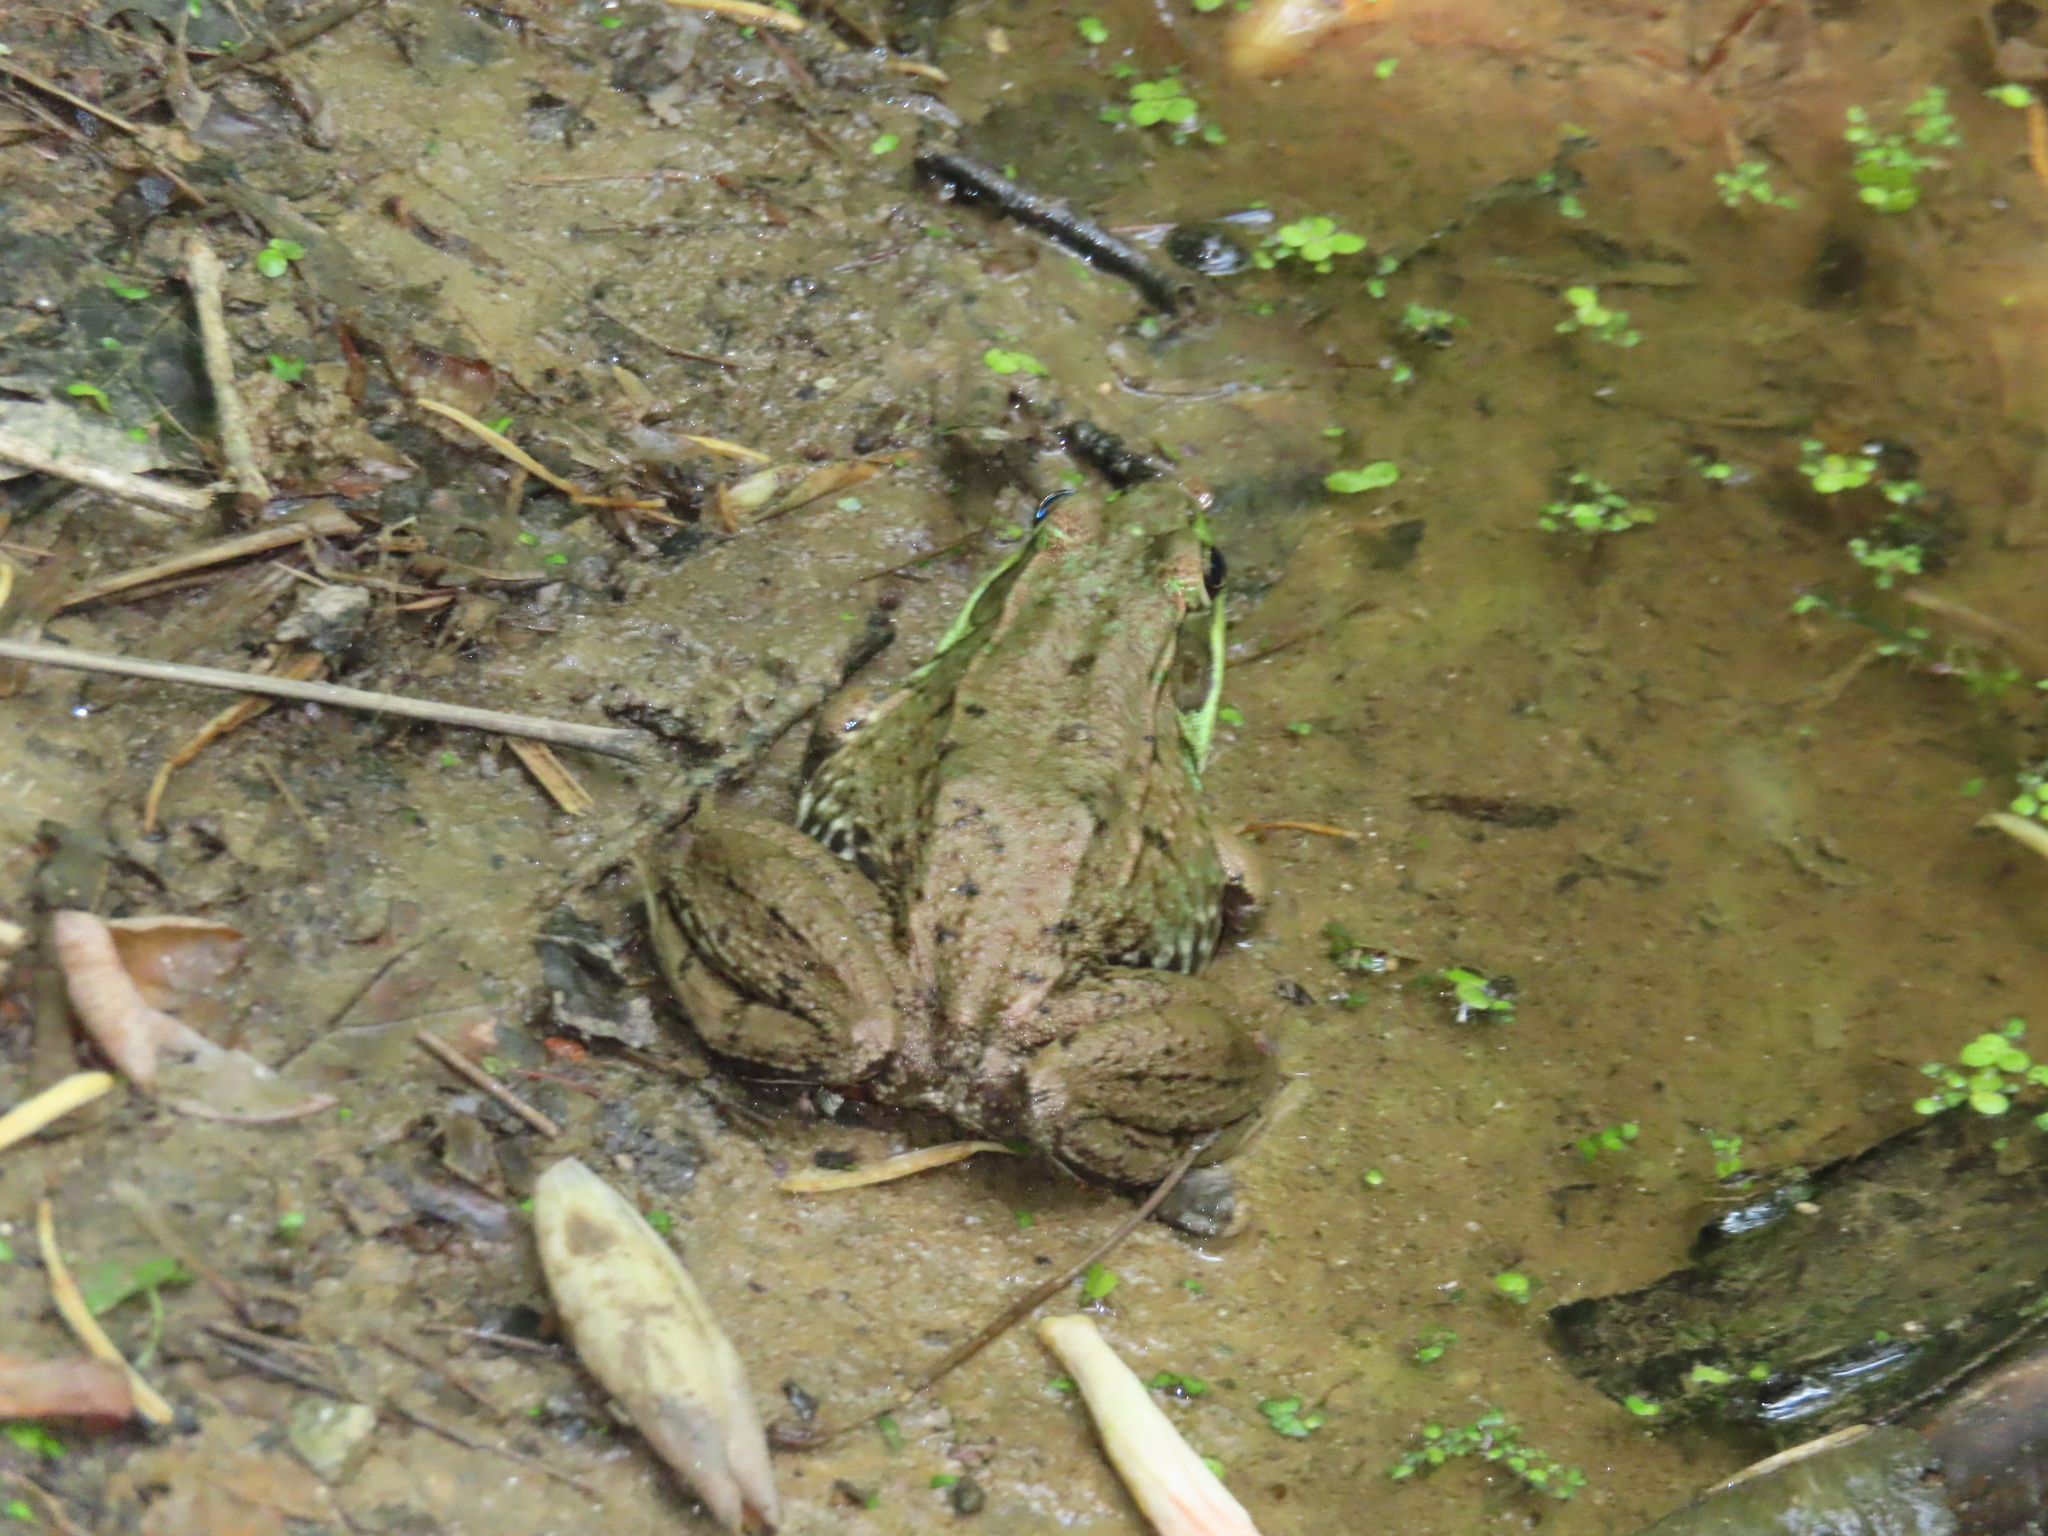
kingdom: Animalia
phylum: Chordata
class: Amphibia
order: Anura
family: Ranidae
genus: Lithobates
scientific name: Lithobates clamitans
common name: Green frog
